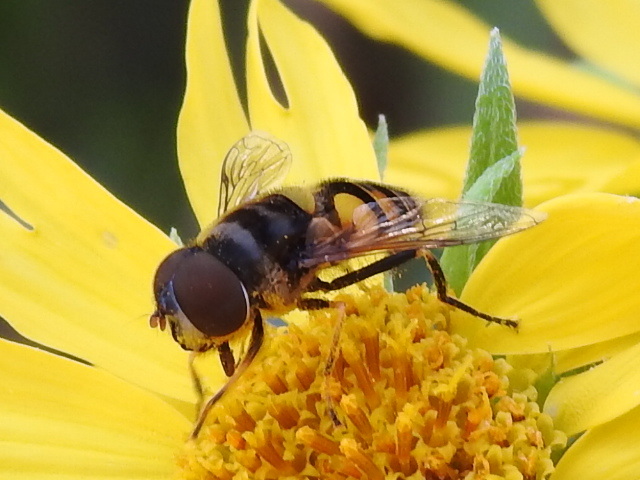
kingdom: Animalia
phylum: Arthropoda
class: Insecta
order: Diptera
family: Syrphidae
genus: Eristalis
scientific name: Eristalis transversa
